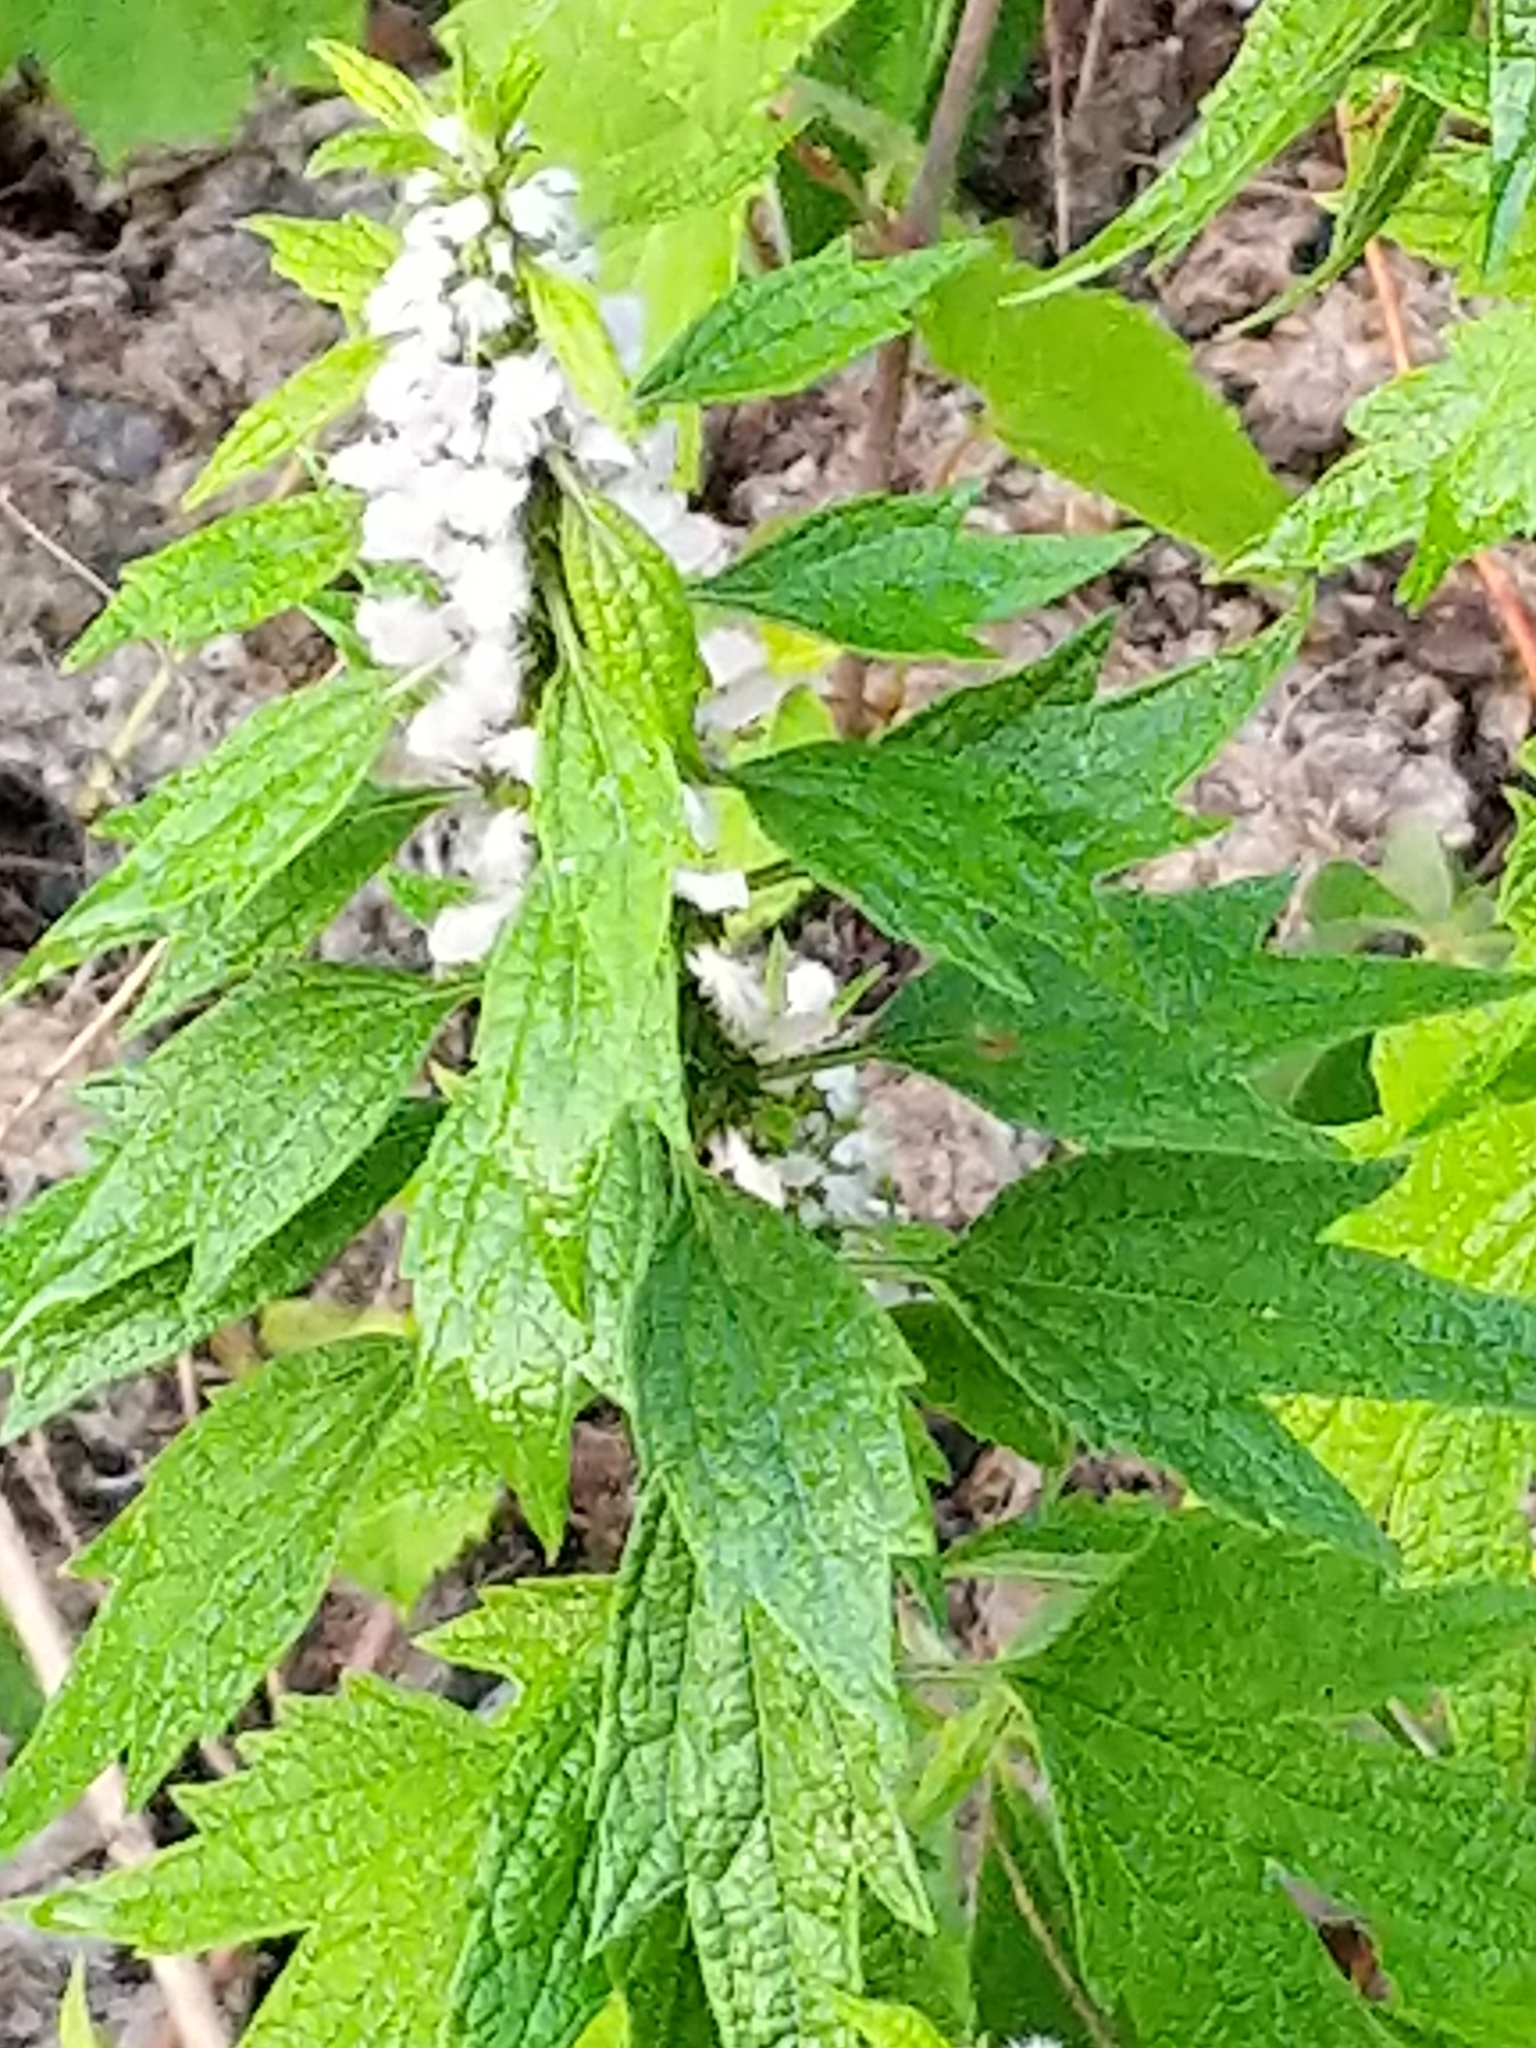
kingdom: Plantae
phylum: Tracheophyta
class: Magnoliopsida
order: Lamiales
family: Lamiaceae
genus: Leonurus
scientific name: Leonurus cardiaca
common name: Motherwort
